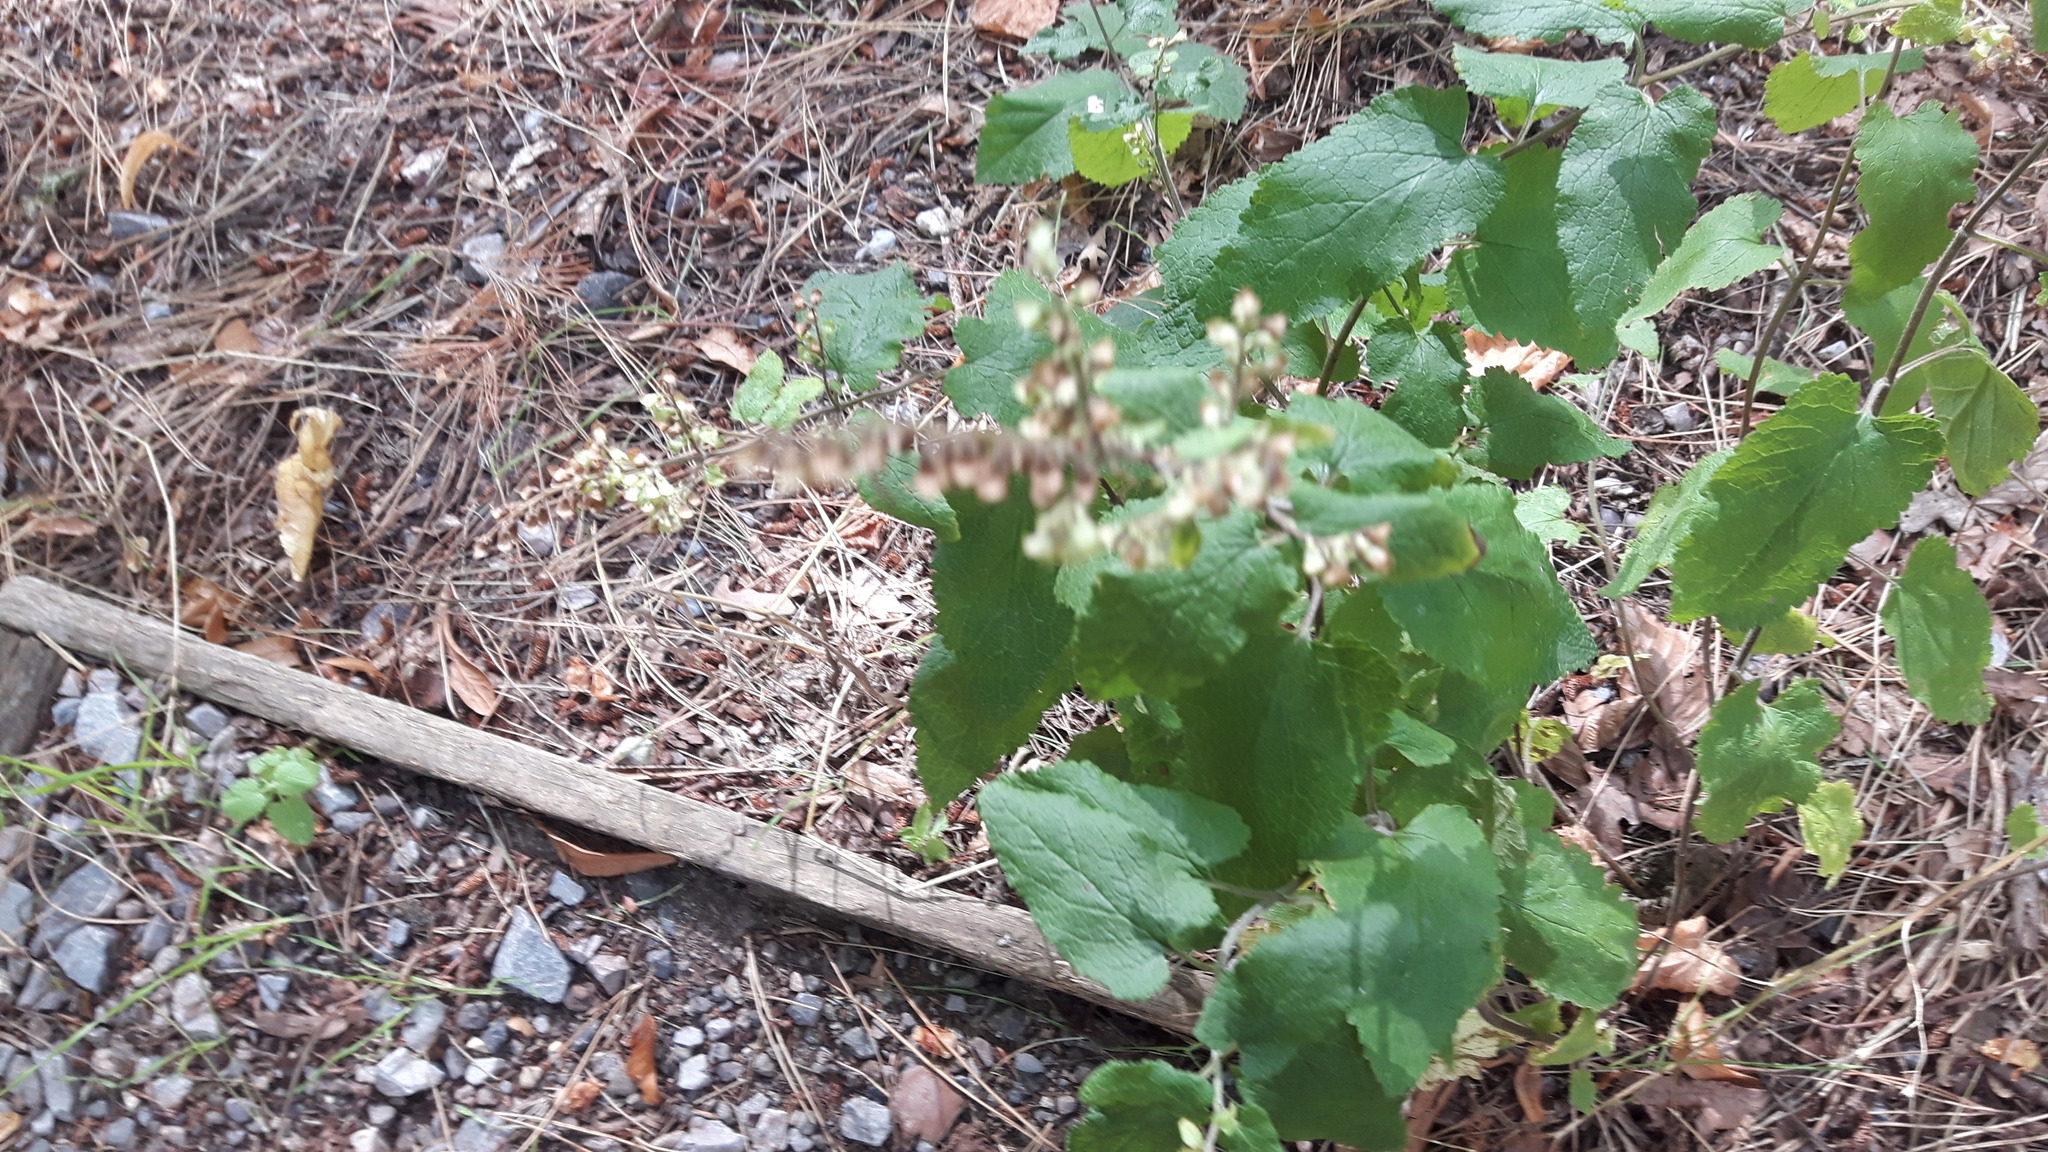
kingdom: Plantae
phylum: Tracheophyta
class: Magnoliopsida
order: Lamiales
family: Lamiaceae
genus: Teucrium
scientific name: Teucrium scorodonia
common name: Woodland germander
